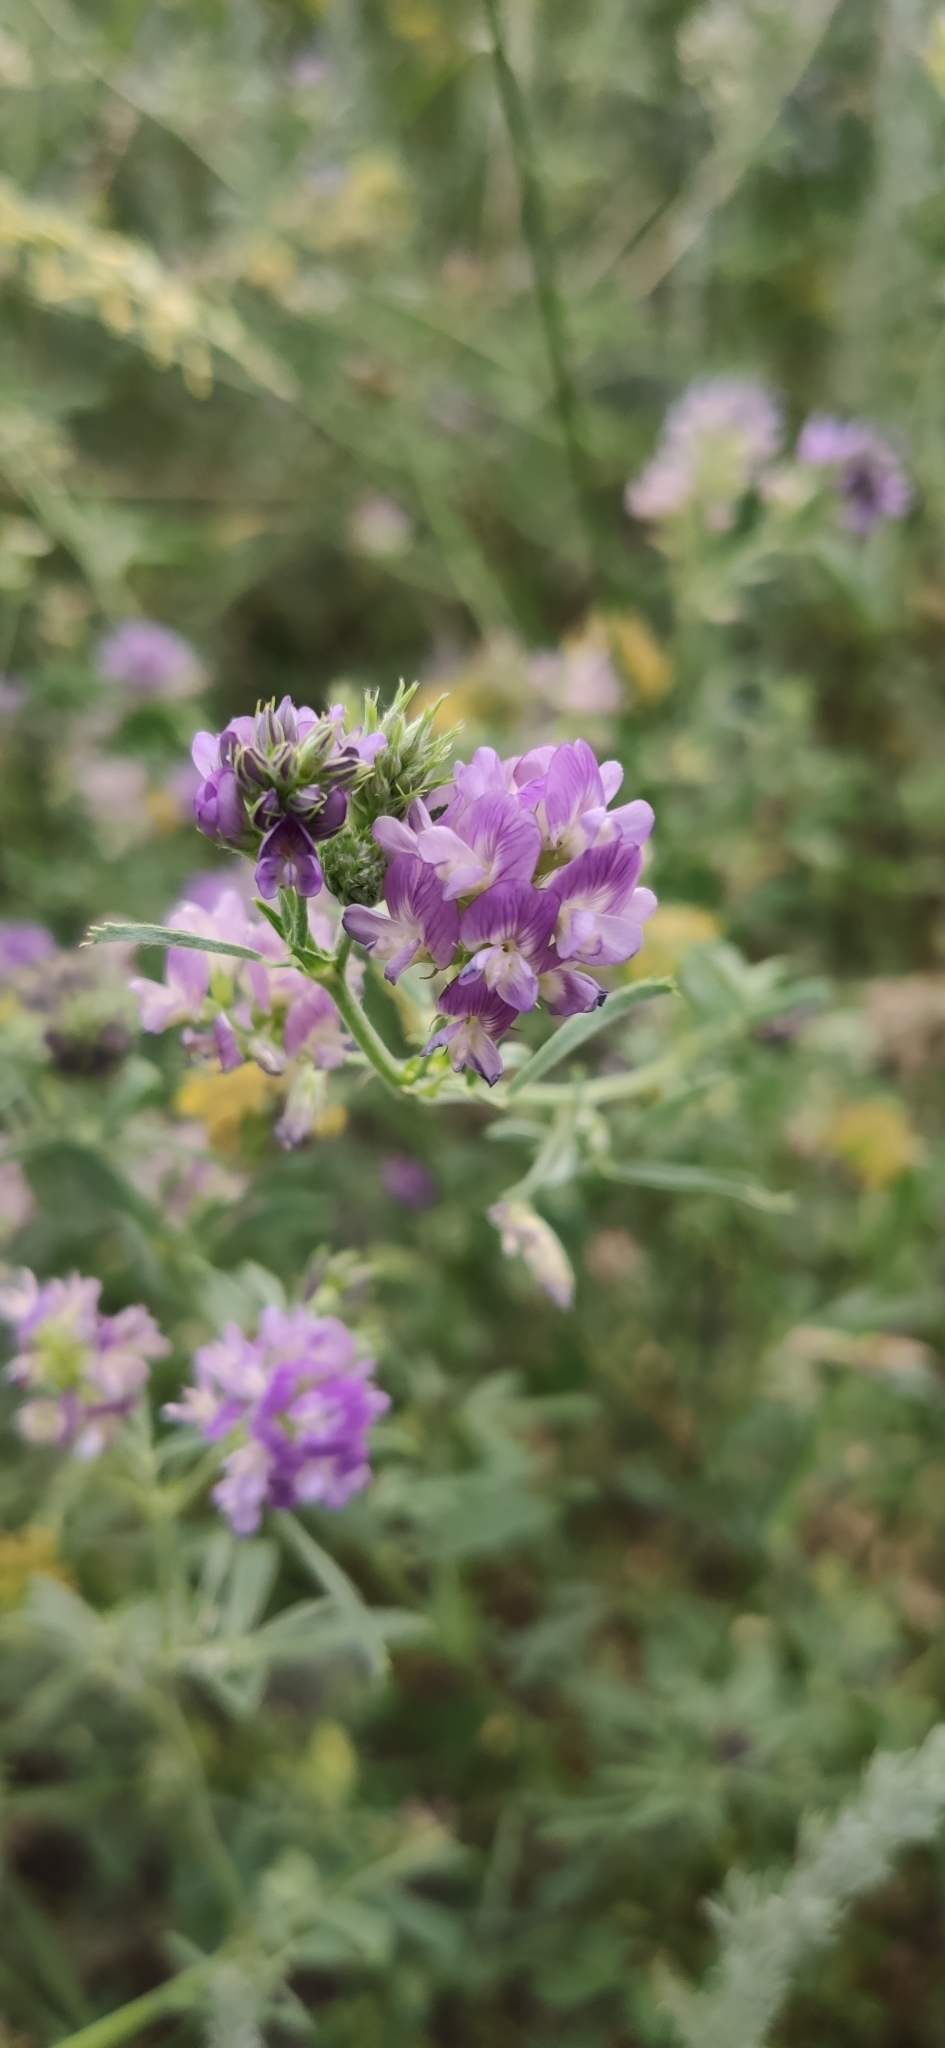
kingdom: Plantae
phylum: Tracheophyta
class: Magnoliopsida
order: Fabales
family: Fabaceae
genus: Medicago
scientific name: Medicago varia
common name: Sand lucerne
